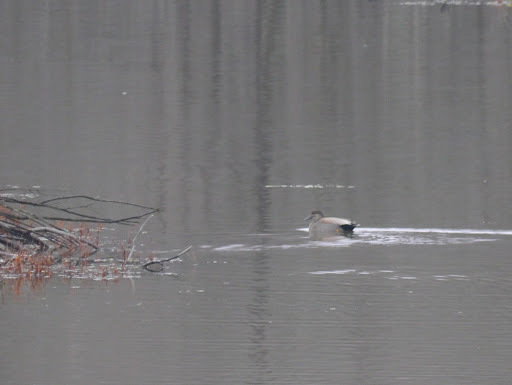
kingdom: Animalia
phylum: Chordata
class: Aves
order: Anseriformes
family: Anatidae
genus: Mareca
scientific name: Mareca strepera
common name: Gadwall
